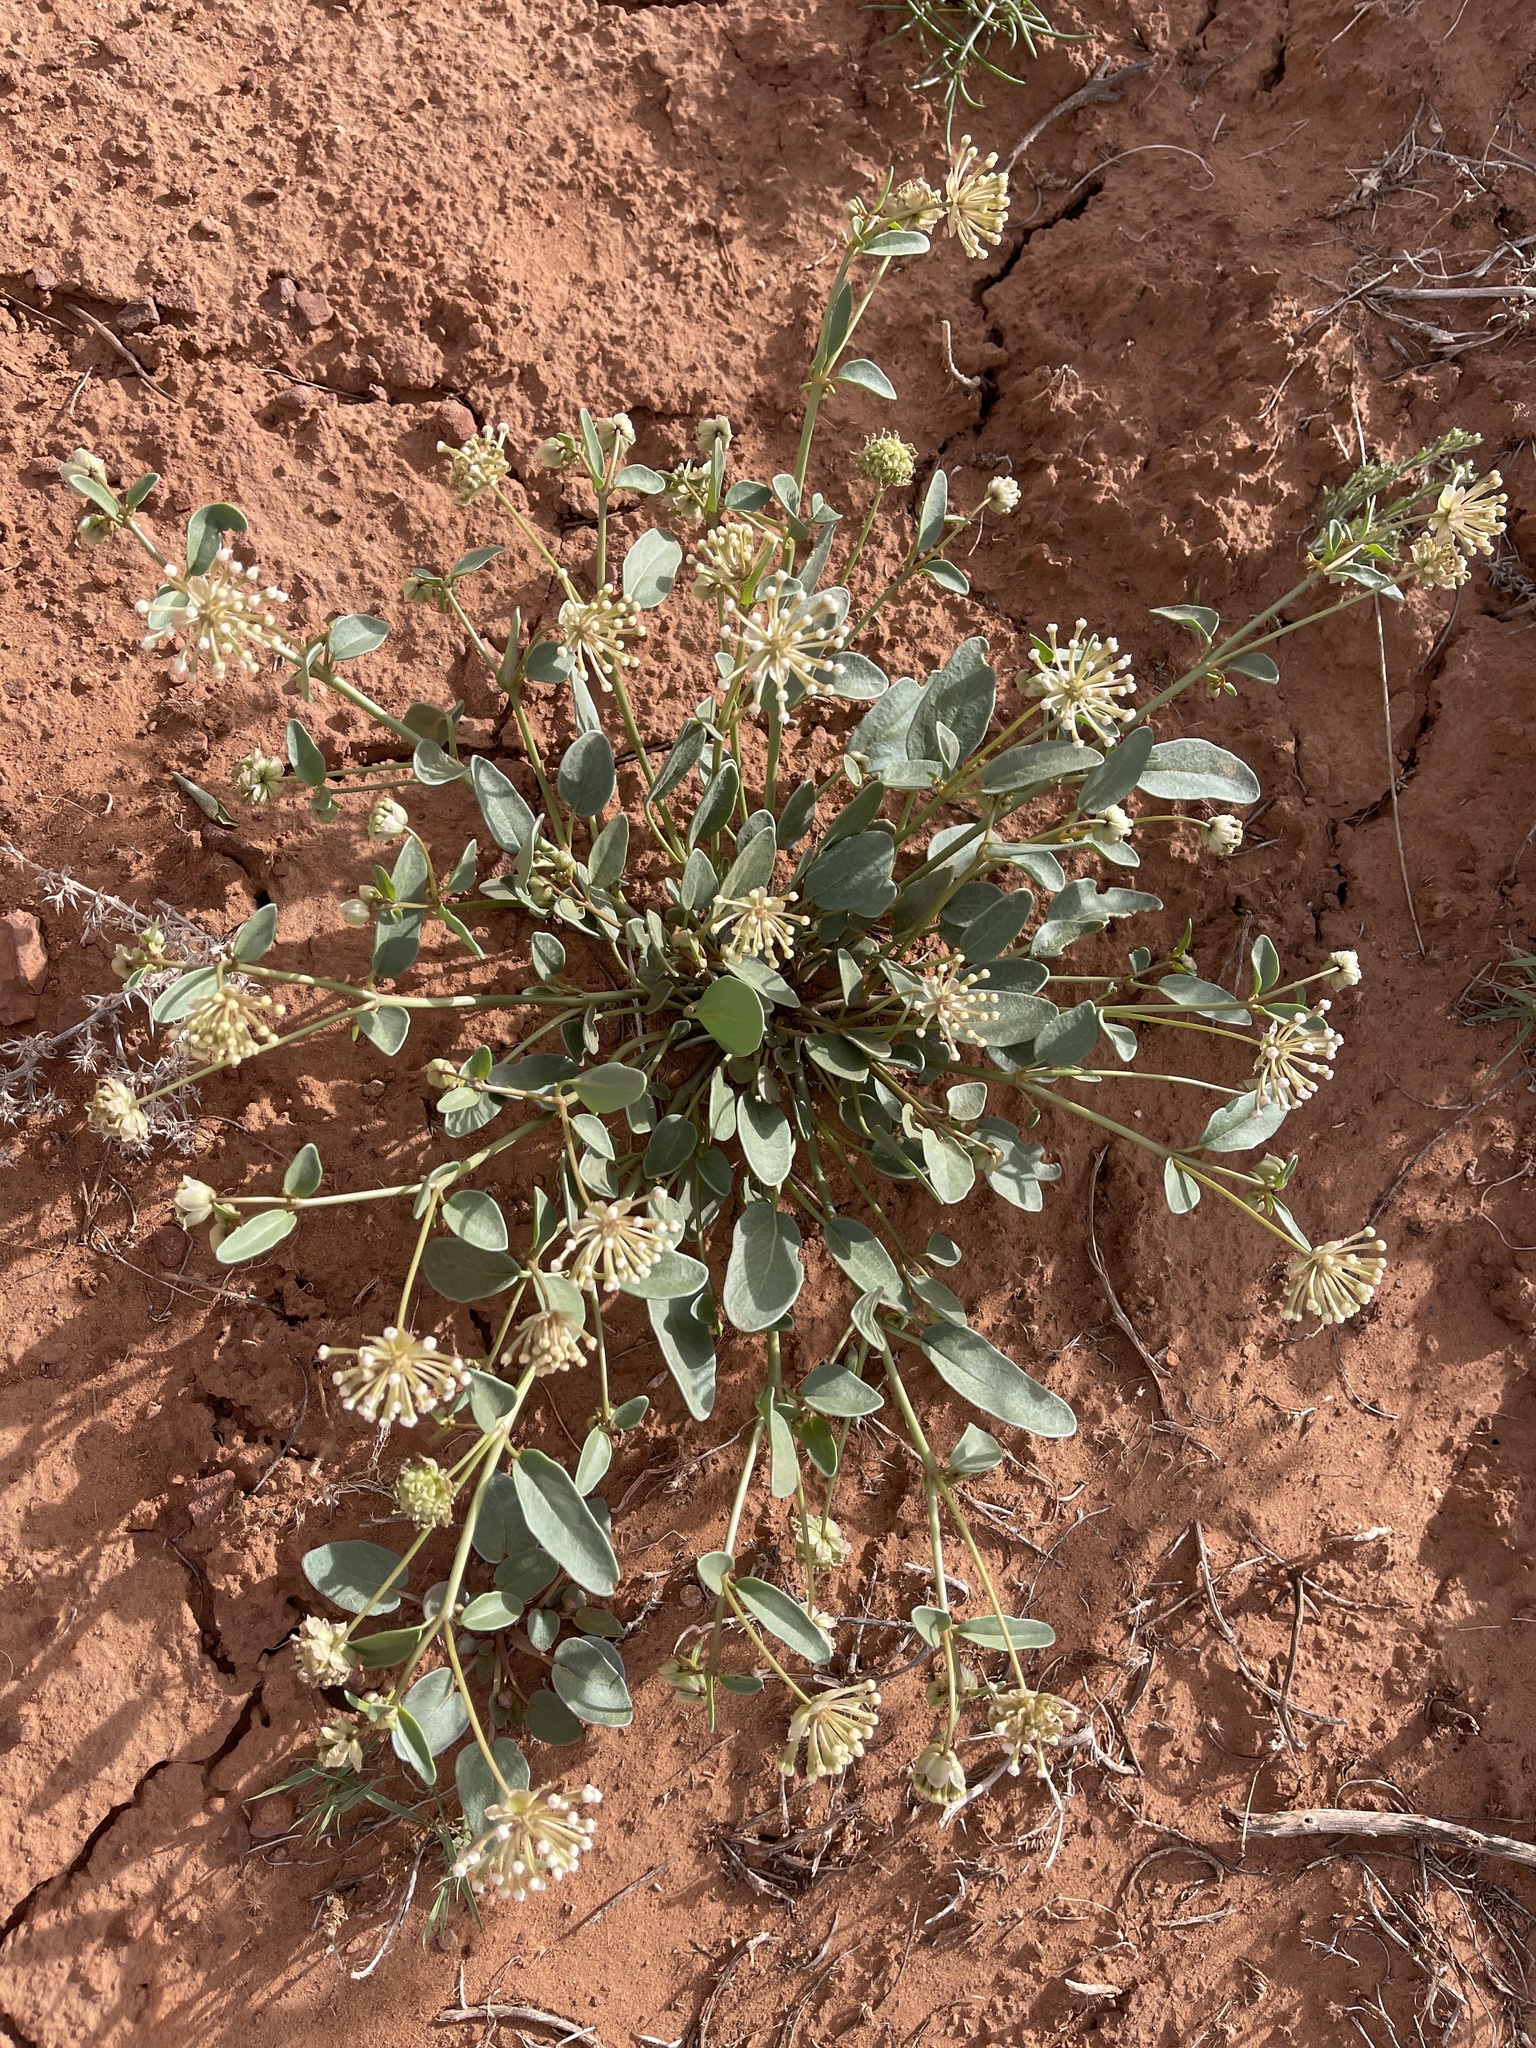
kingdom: Plantae
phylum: Tracheophyta
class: Magnoliopsida
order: Caryophyllales
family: Nyctaginaceae
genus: Abronia
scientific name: Abronia elliptica
